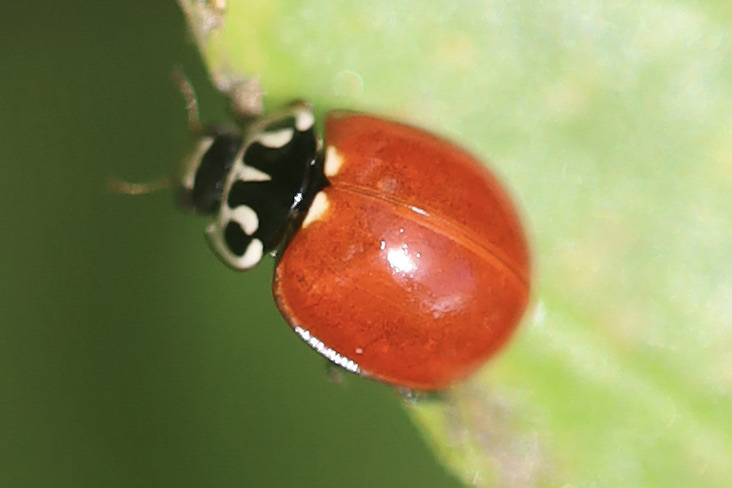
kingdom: Animalia
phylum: Arthropoda
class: Insecta
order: Coleoptera
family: Coccinellidae
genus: Cycloneda
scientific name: Cycloneda polita
